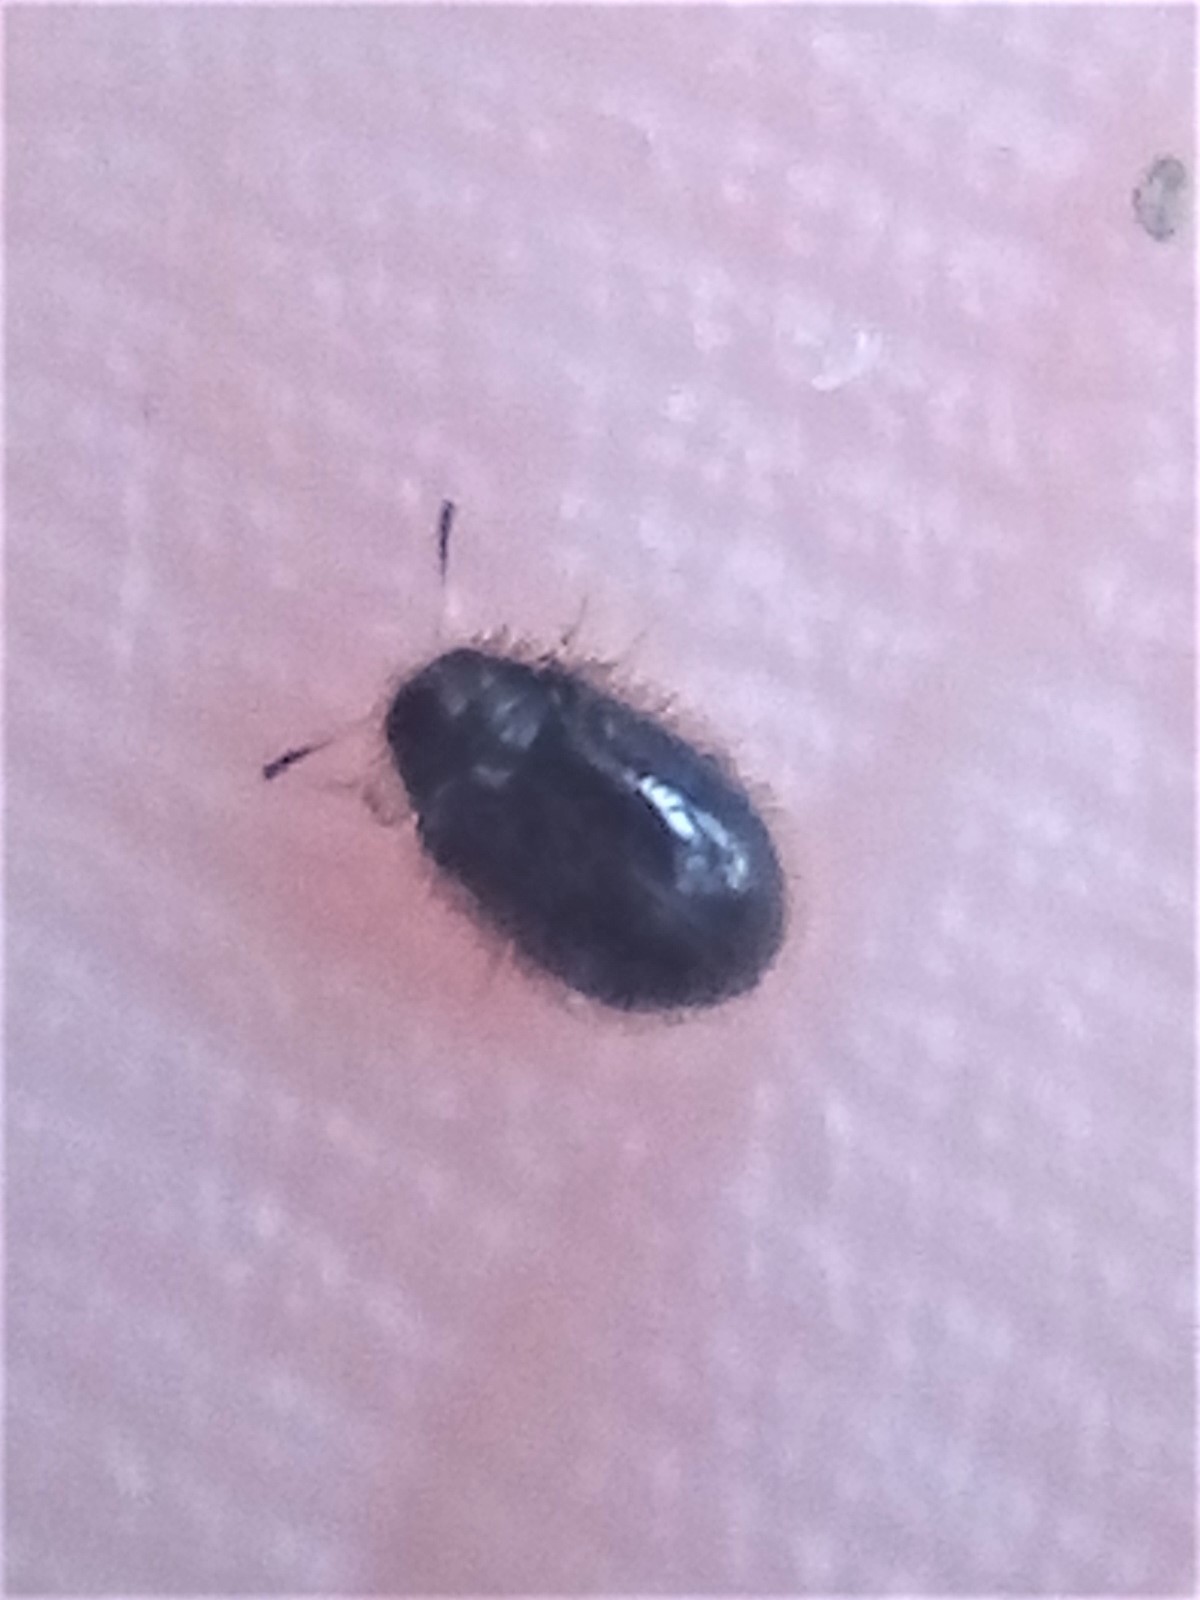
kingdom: Animalia
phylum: Arthropoda
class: Insecta
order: Coleoptera
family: Dermestidae
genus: Hexanodes
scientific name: Hexanodes
